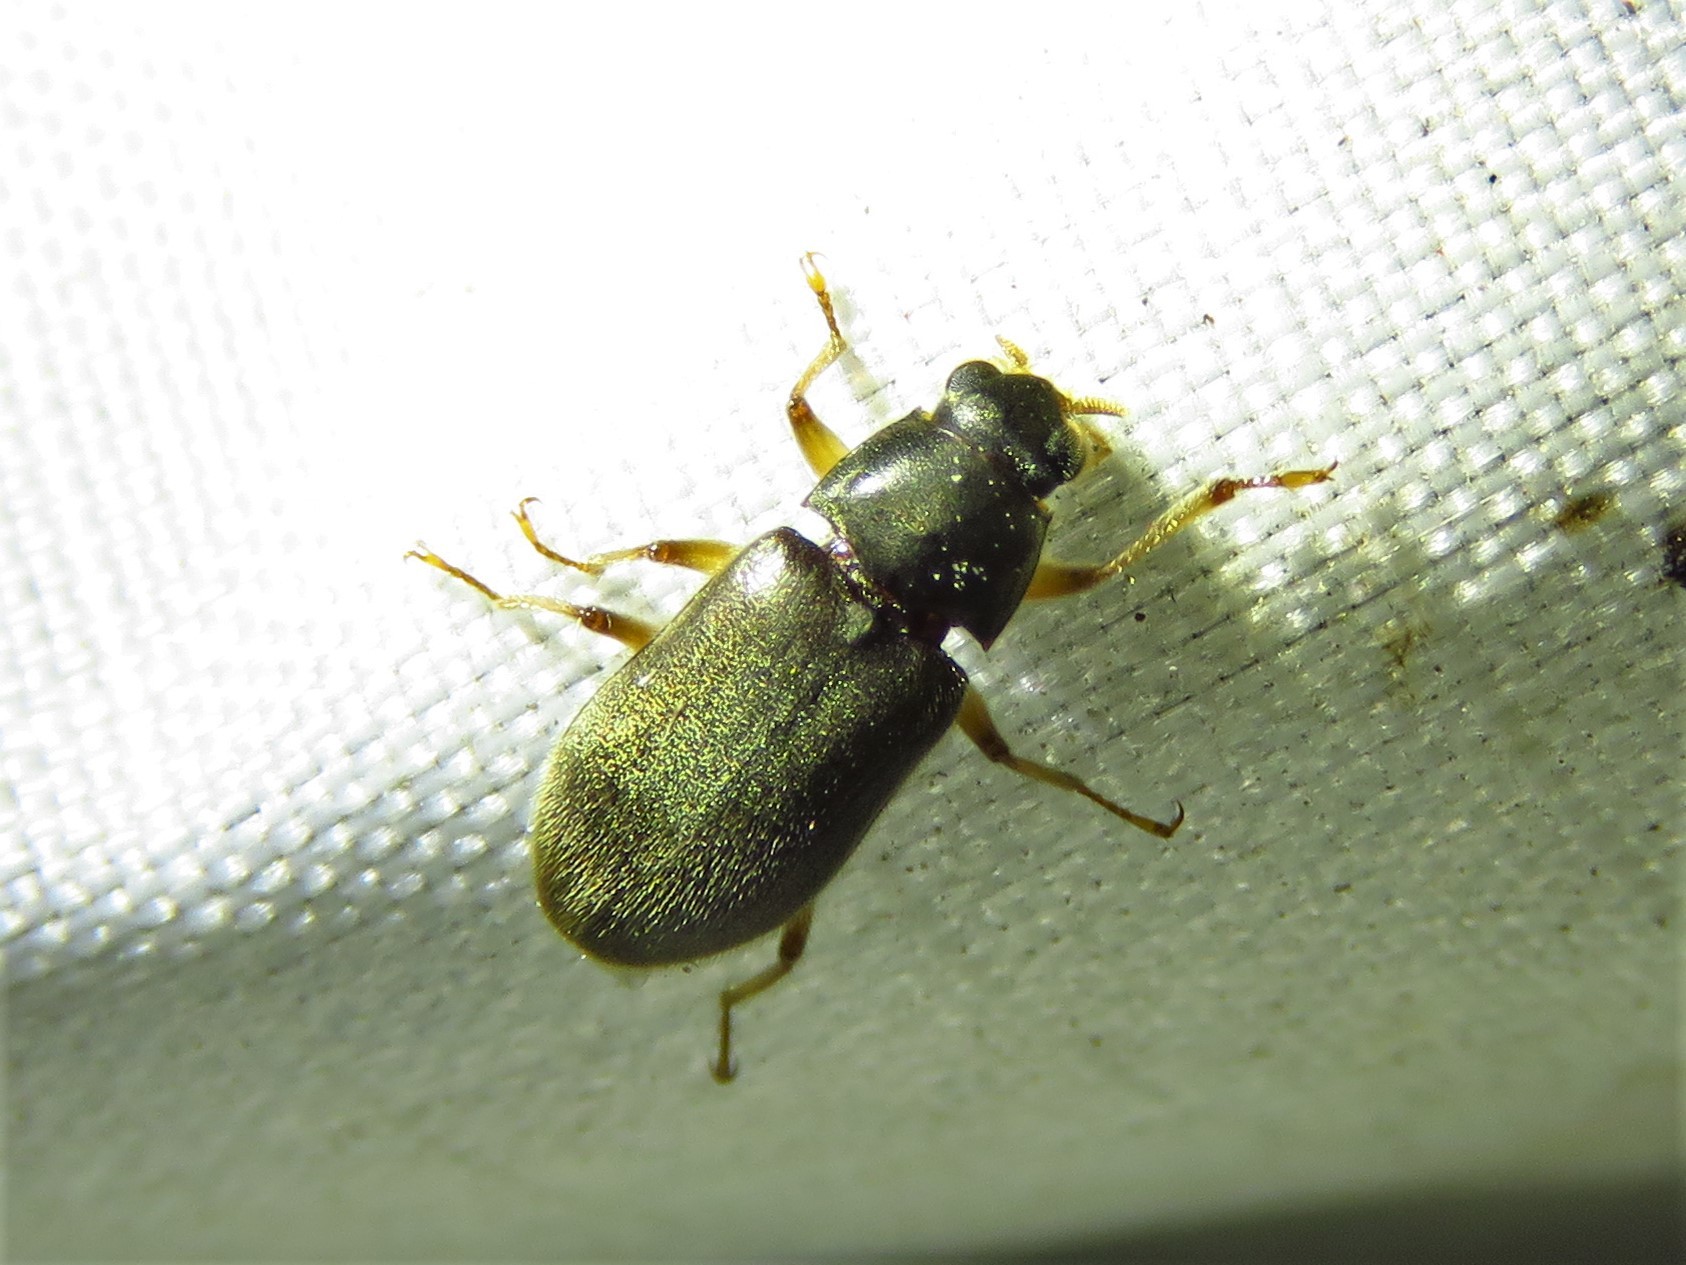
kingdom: Animalia
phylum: Arthropoda
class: Insecta
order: Coleoptera
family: Dryopidae
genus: Pelonomus
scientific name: Pelonomus obscurus
